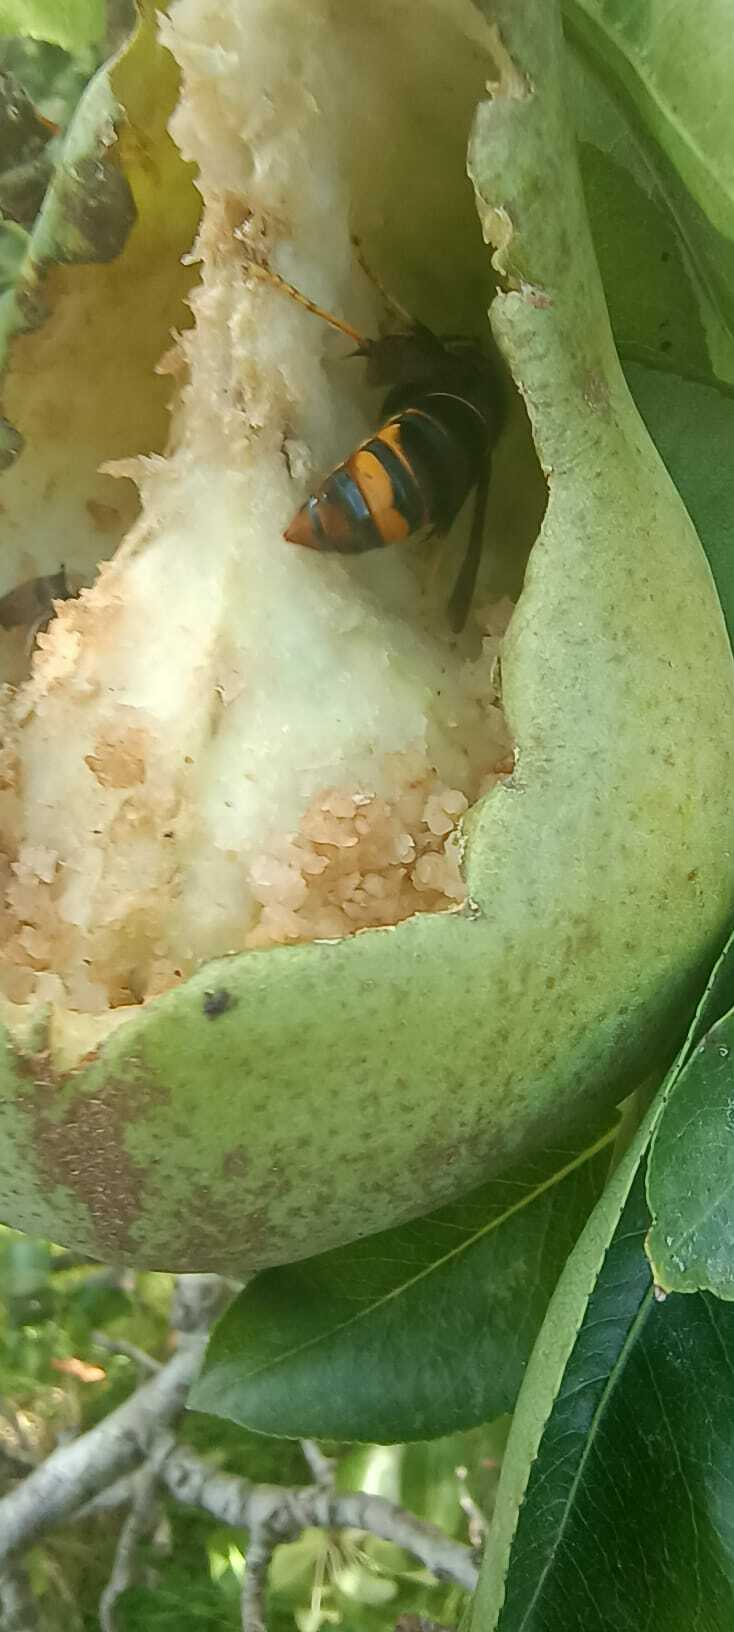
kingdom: Animalia
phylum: Arthropoda
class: Insecta
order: Hymenoptera
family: Vespidae
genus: Vespa
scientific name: Vespa velutina
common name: Asian hornet
